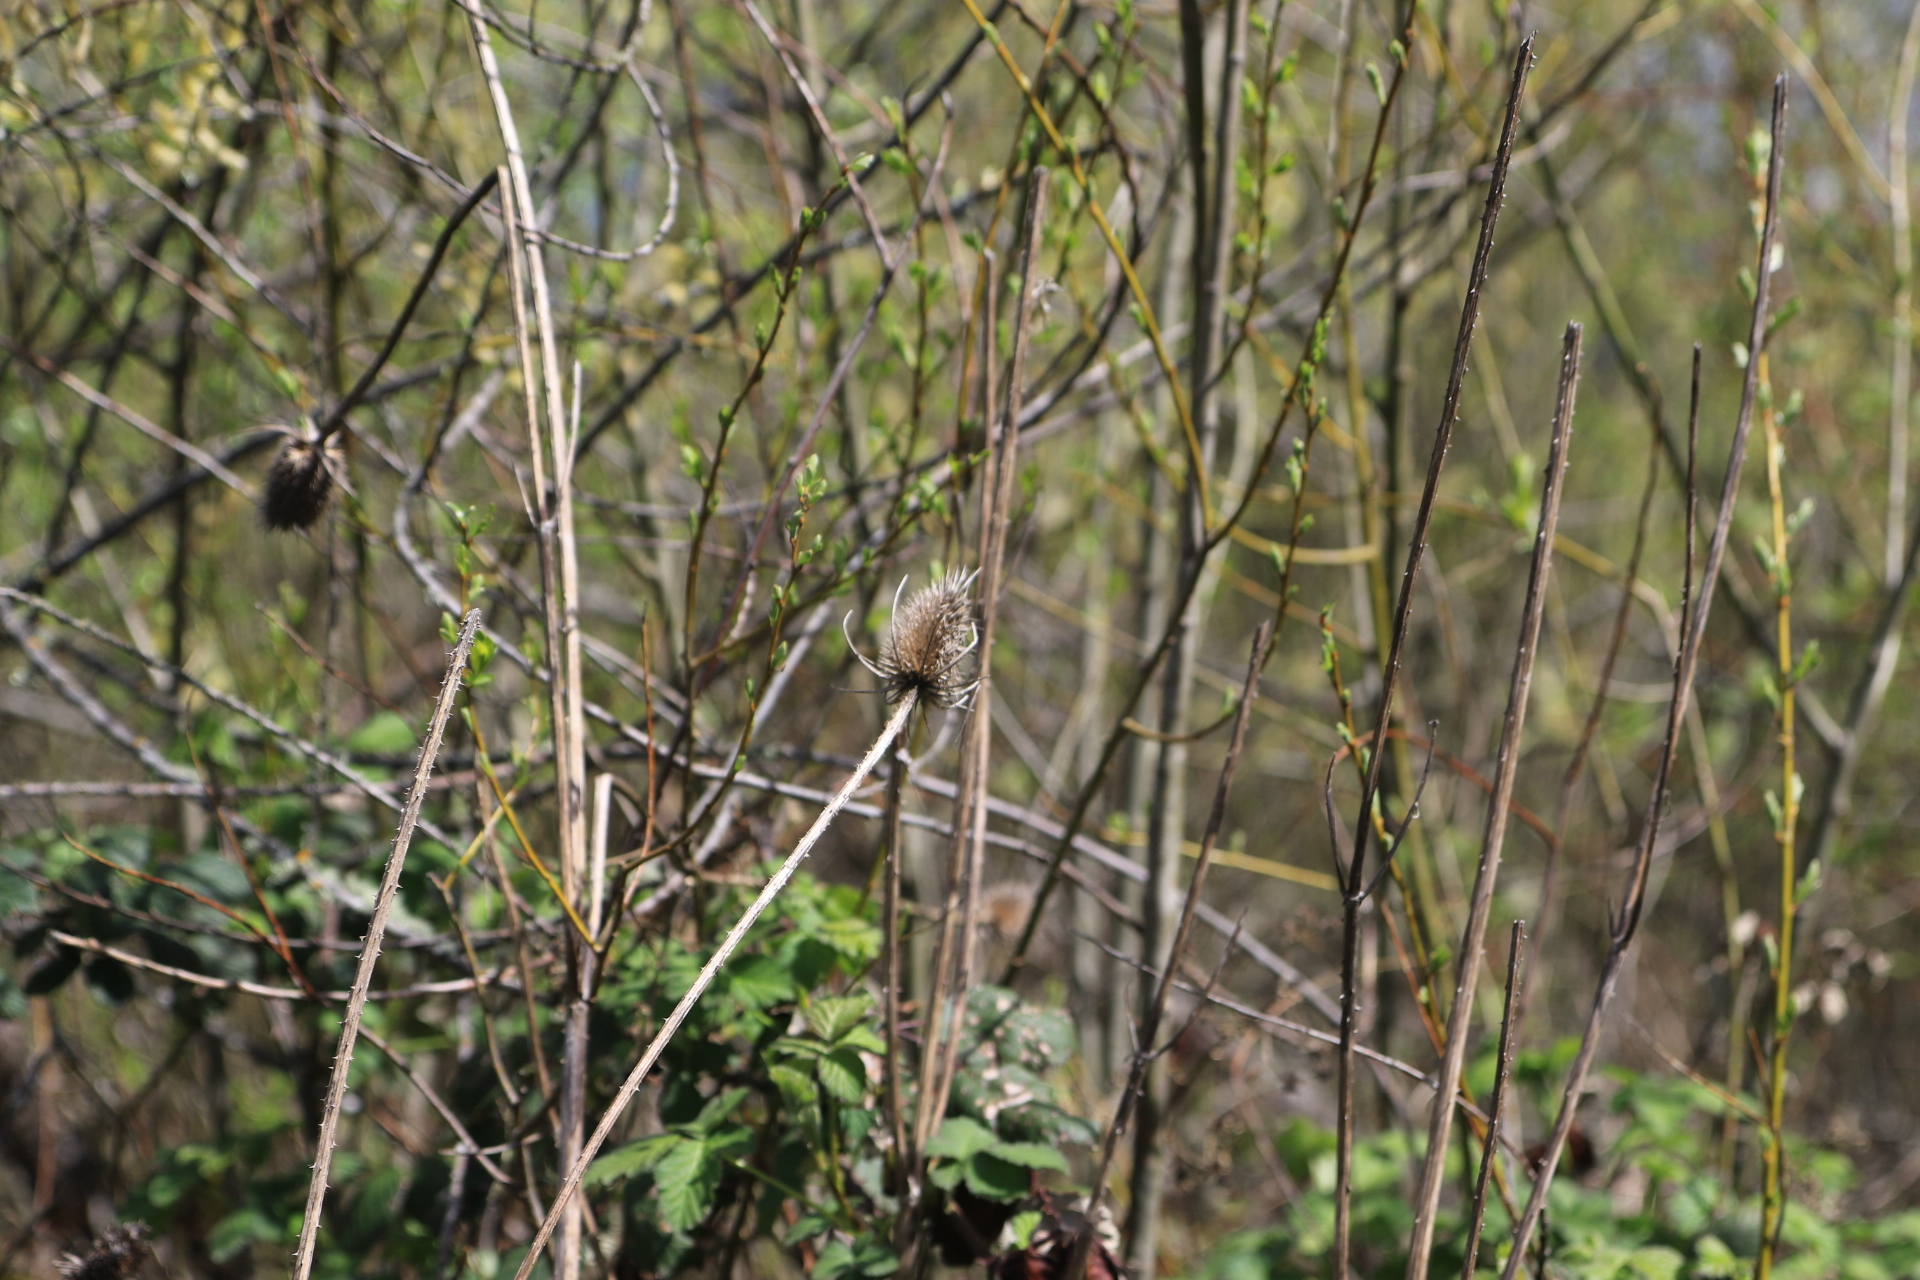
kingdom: Plantae
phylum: Tracheophyta
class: Magnoliopsida
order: Dipsacales
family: Caprifoliaceae
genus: Dipsacus
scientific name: Dipsacus fullonum
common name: Teasel
